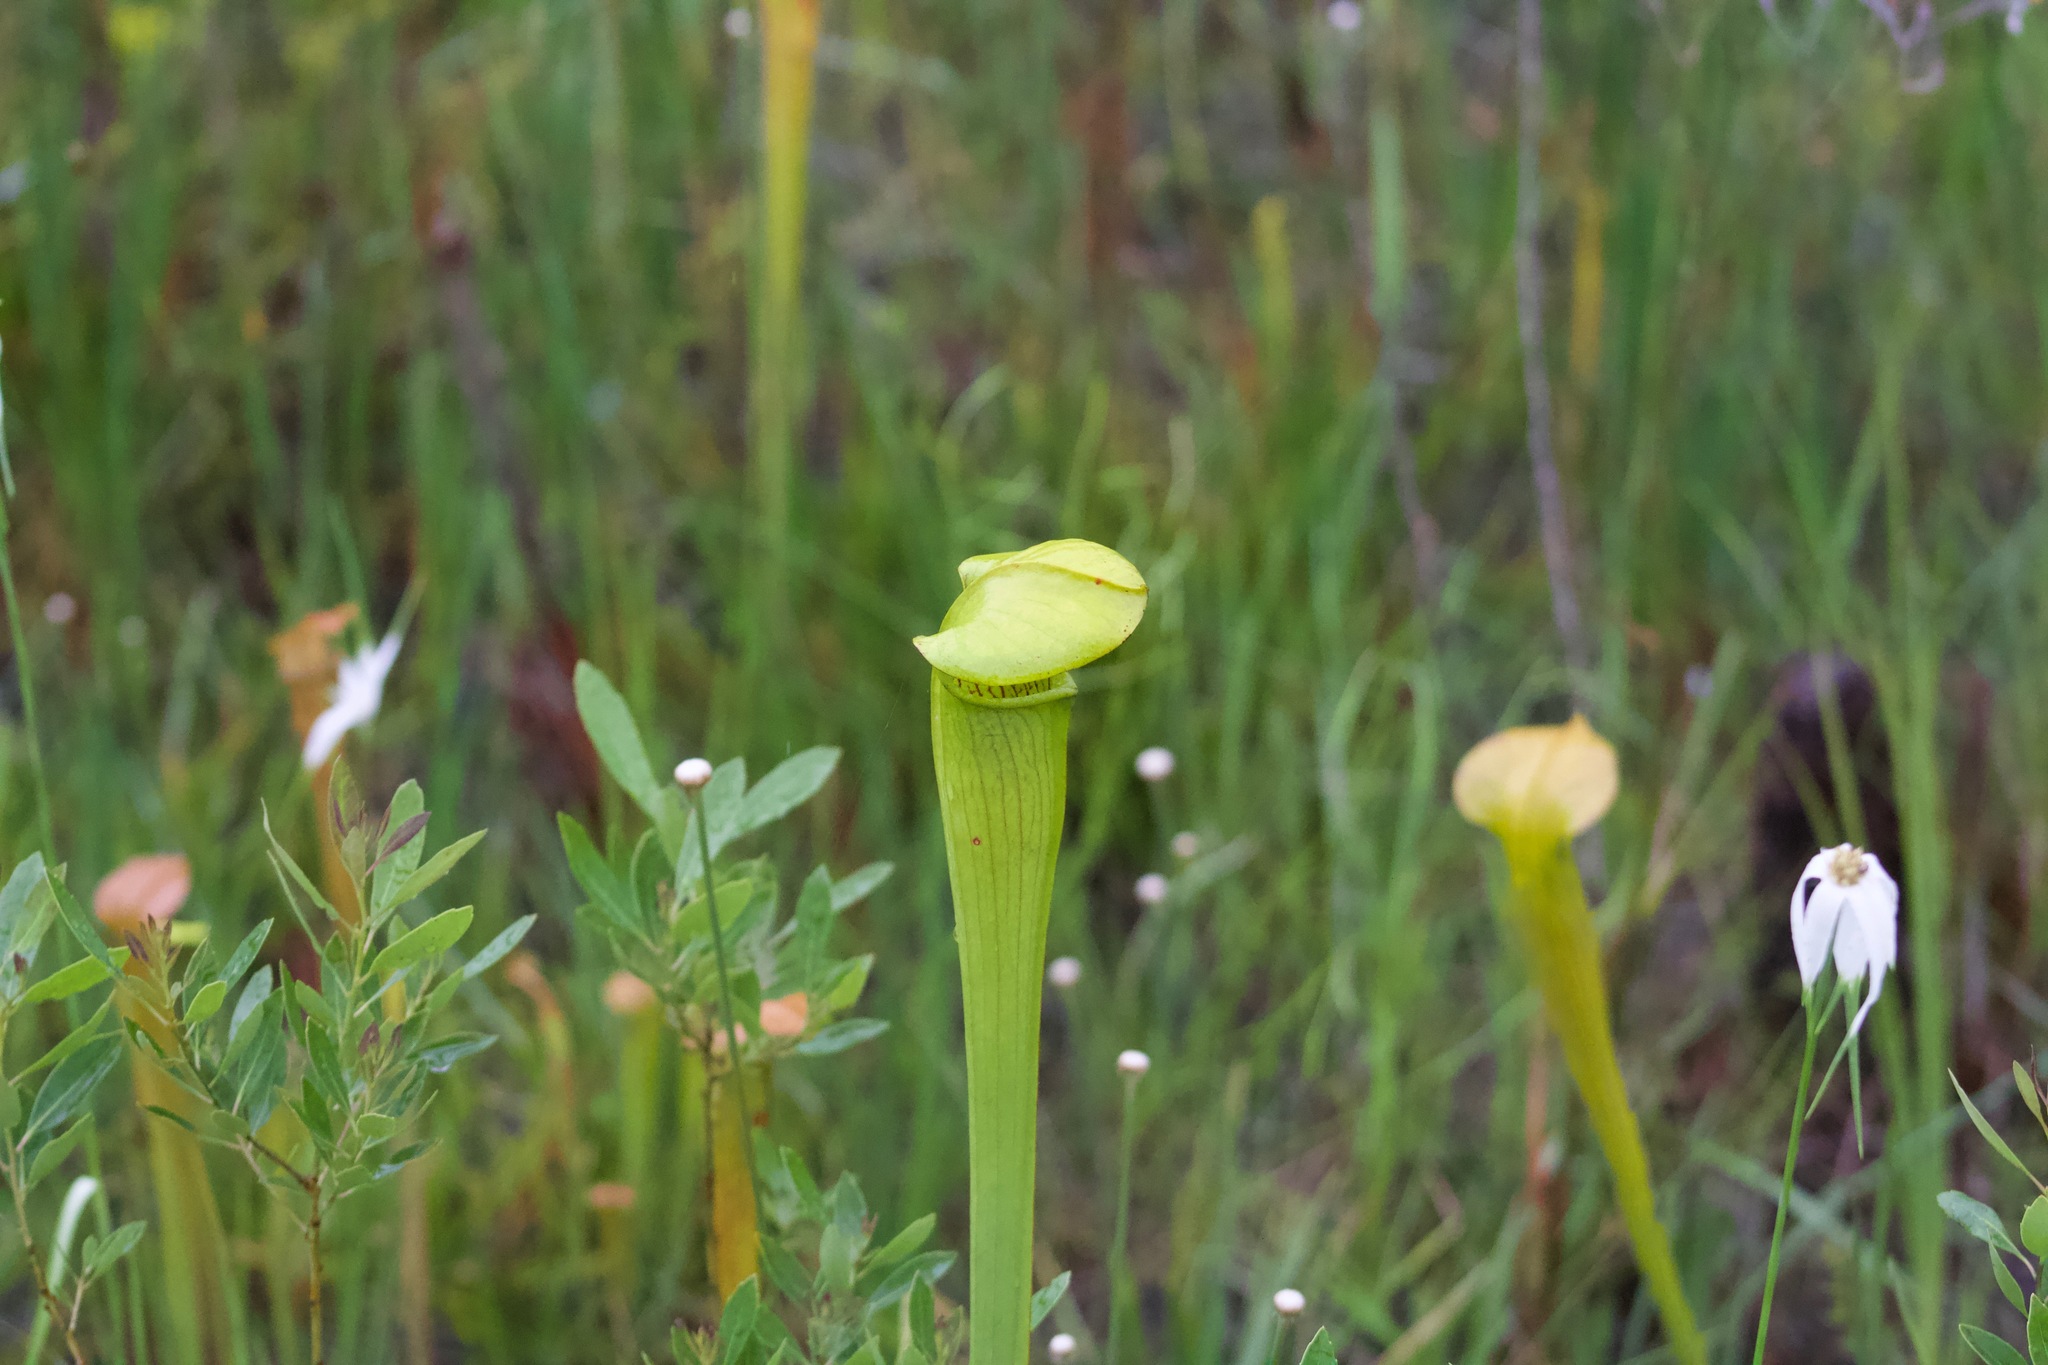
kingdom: Plantae
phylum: Tracheophyta
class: Magnoliopsida
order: Ericales
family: Sarraceniaceae
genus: Sarracenia
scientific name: Sarracenia alata
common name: Yellow trumpets
